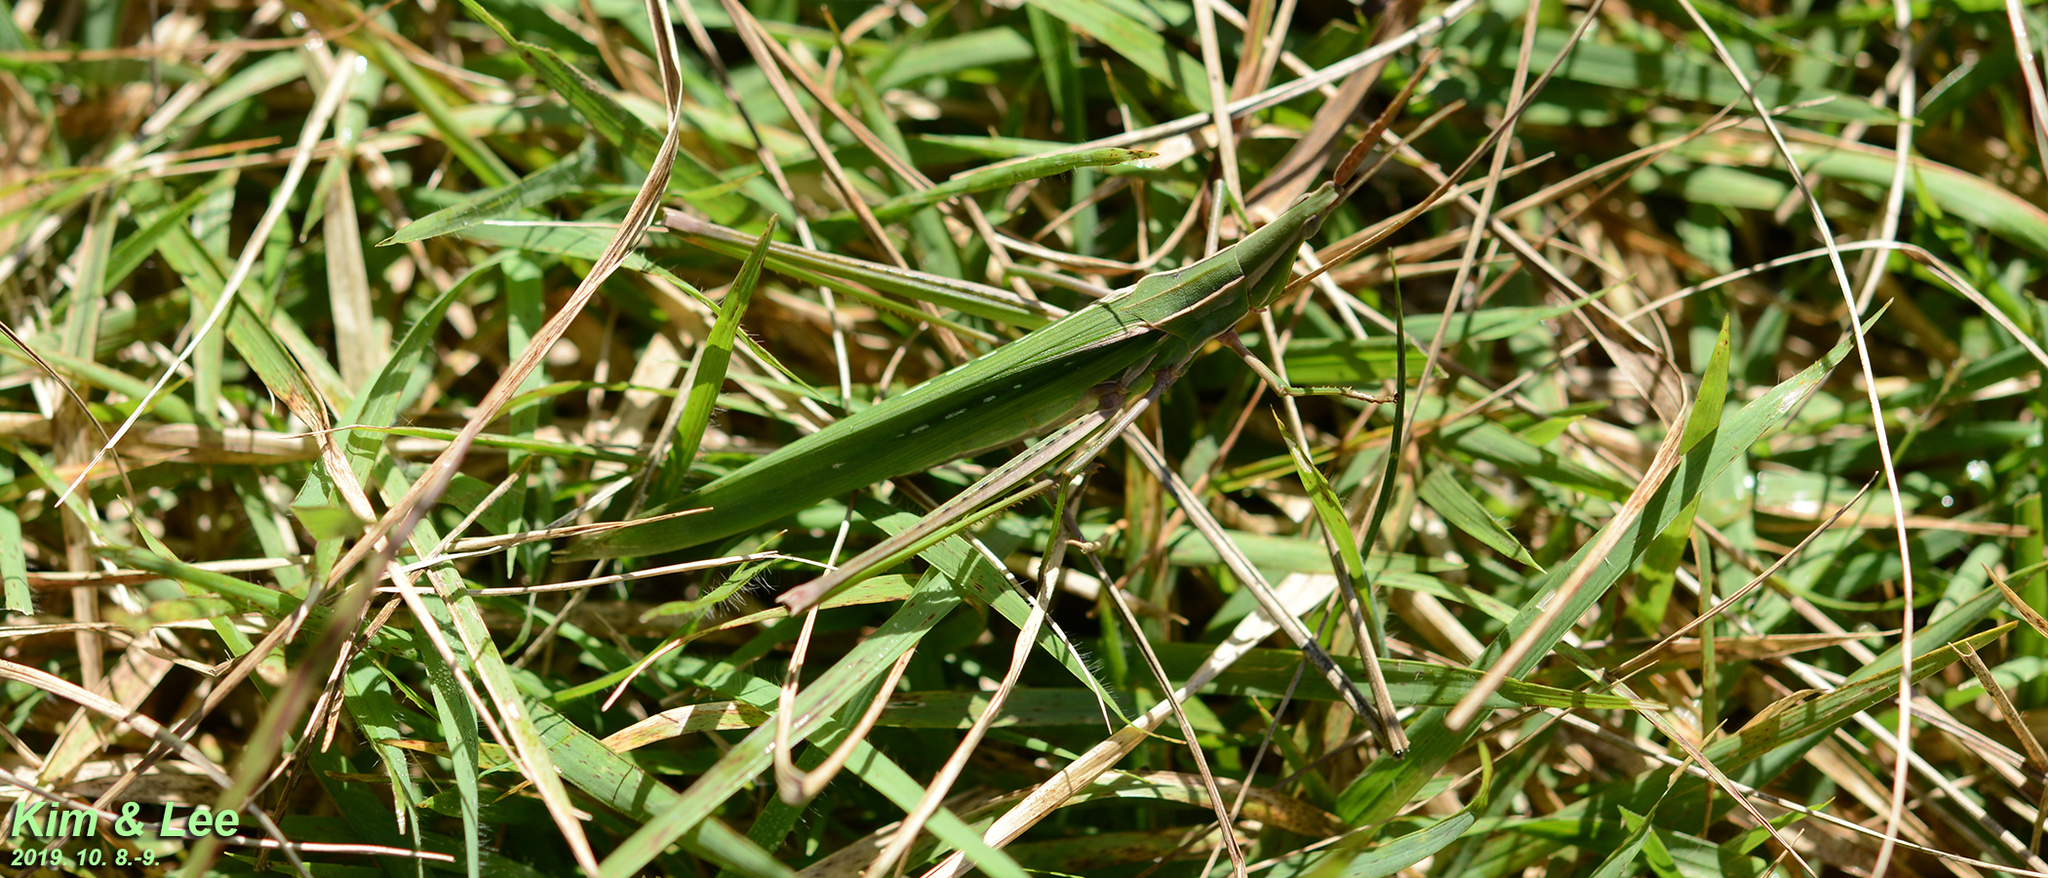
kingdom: Animalia
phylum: Arthropoda
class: Insecta
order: Orthoptera
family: Acrididae
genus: Acrida
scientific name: Acrida cinerea
